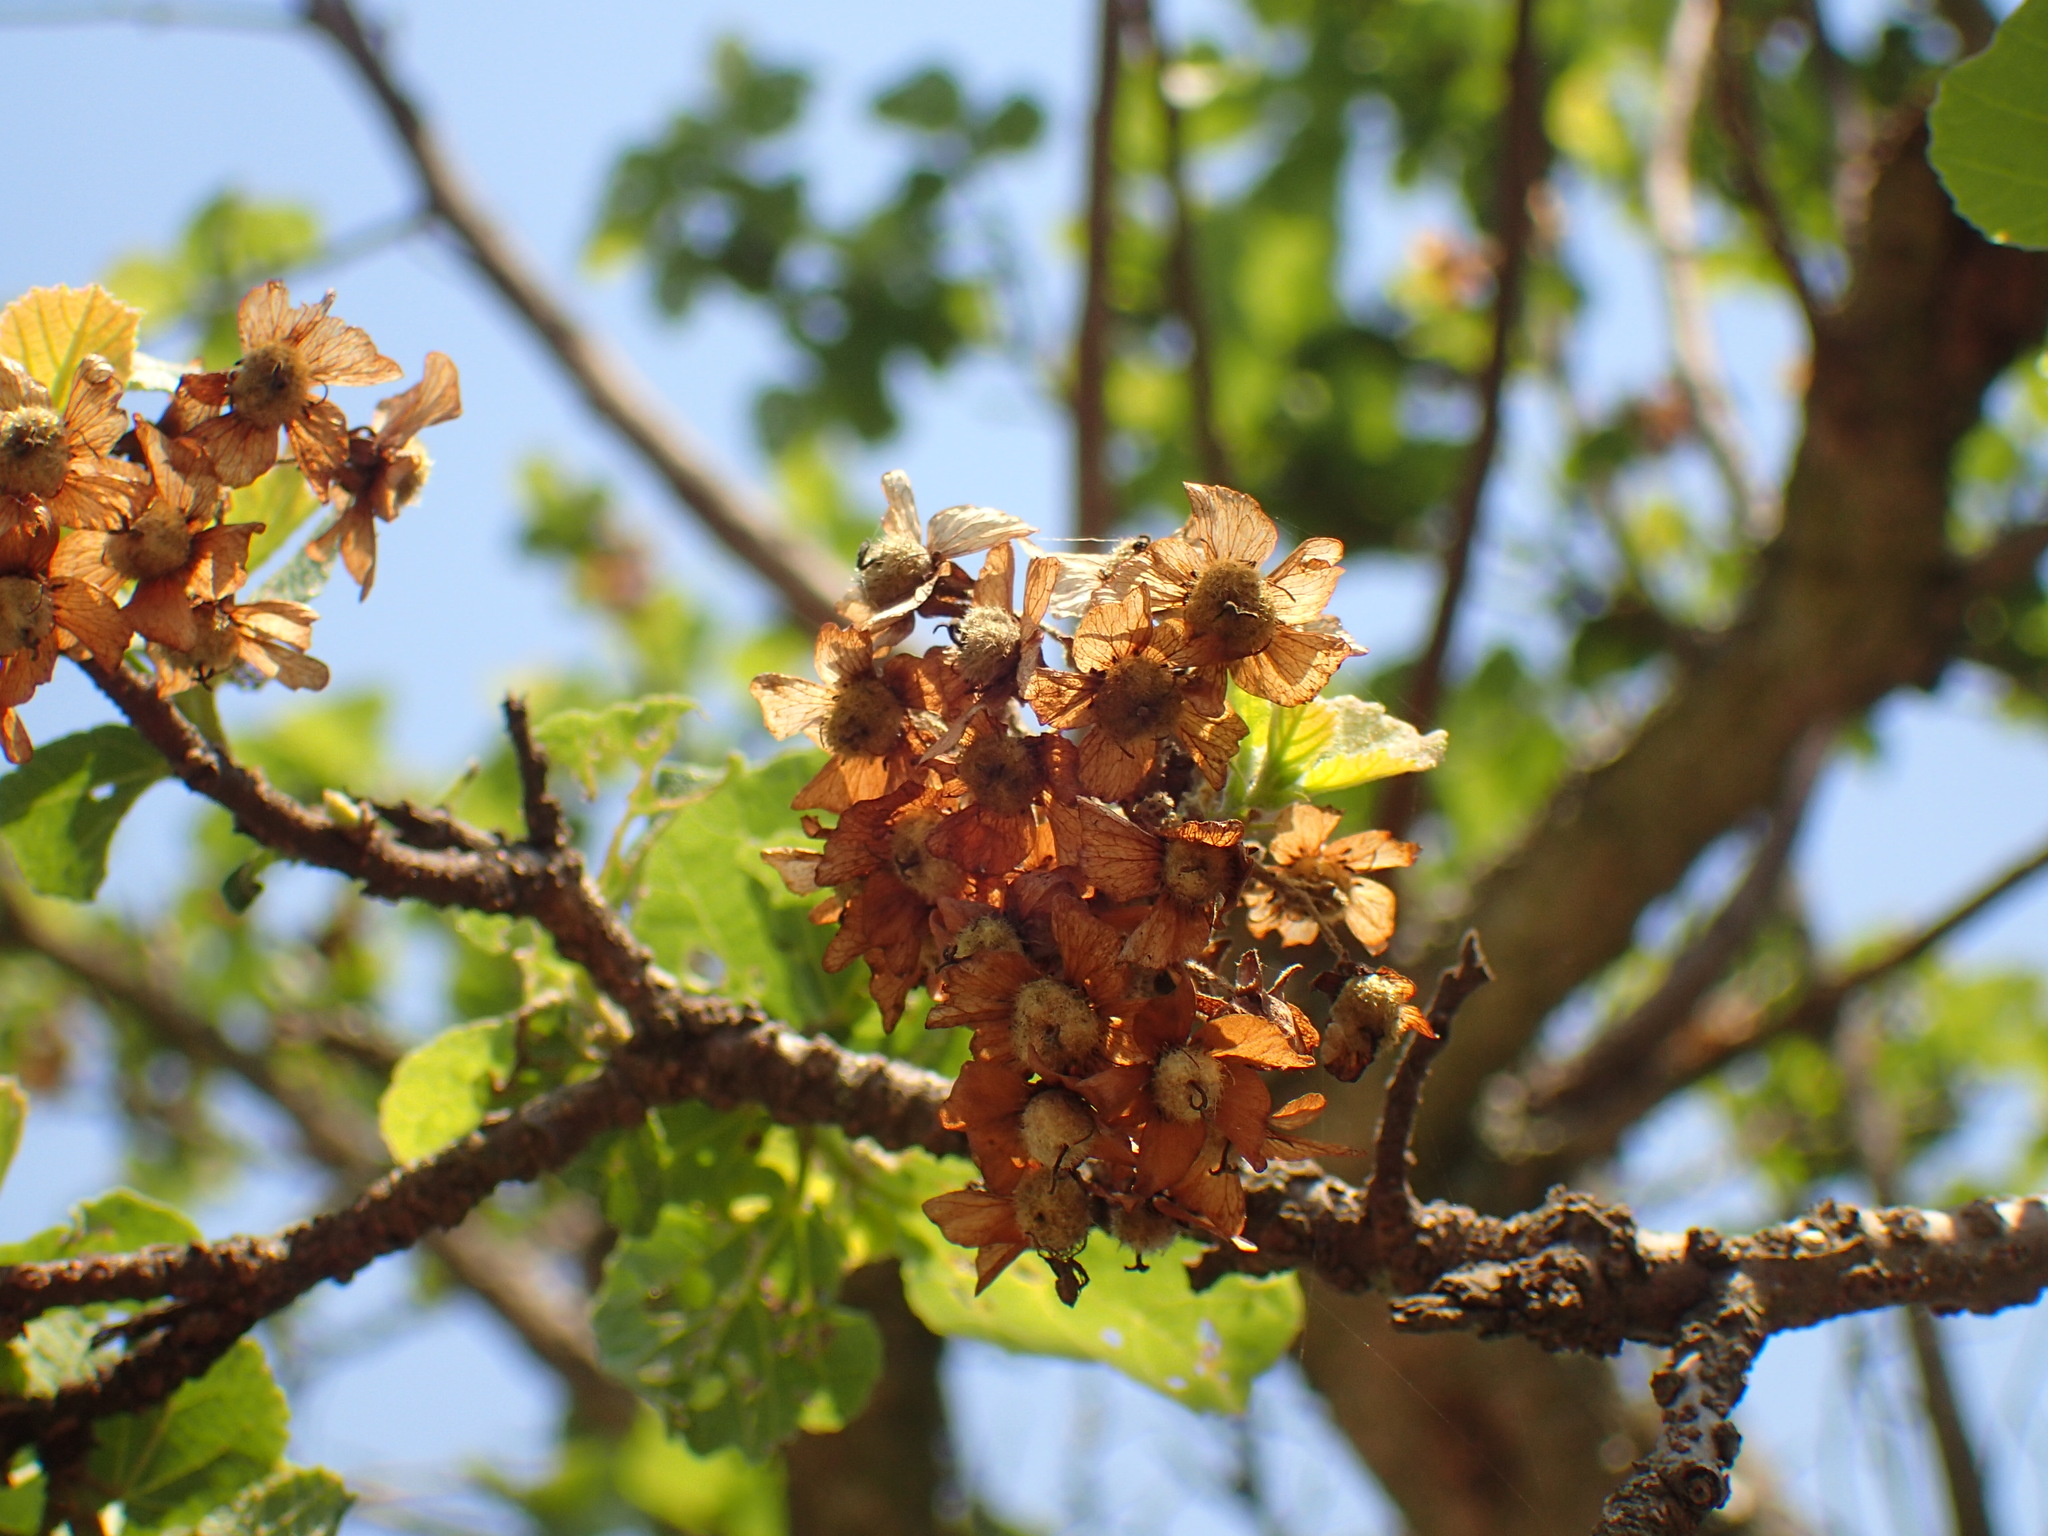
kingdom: Plantae
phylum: Tracheophyta
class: Magnoliopsida
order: Malvales
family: Malvaceae
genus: Dombeya
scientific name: Dombeya rotundifolia
